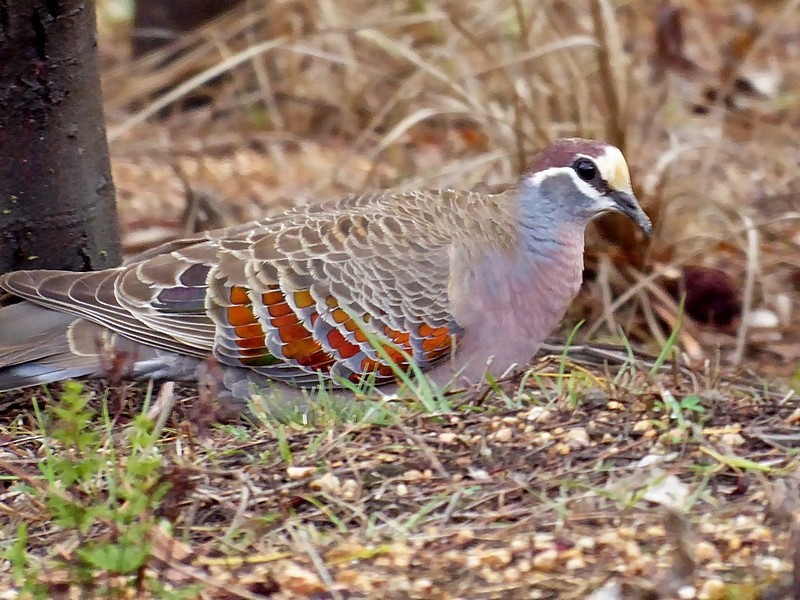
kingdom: Animalia
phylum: Chordata
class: Aves
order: Columbiformes
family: Columbidae
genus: Phaps
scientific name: Phaps chalcoptera
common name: Common bronzewing
